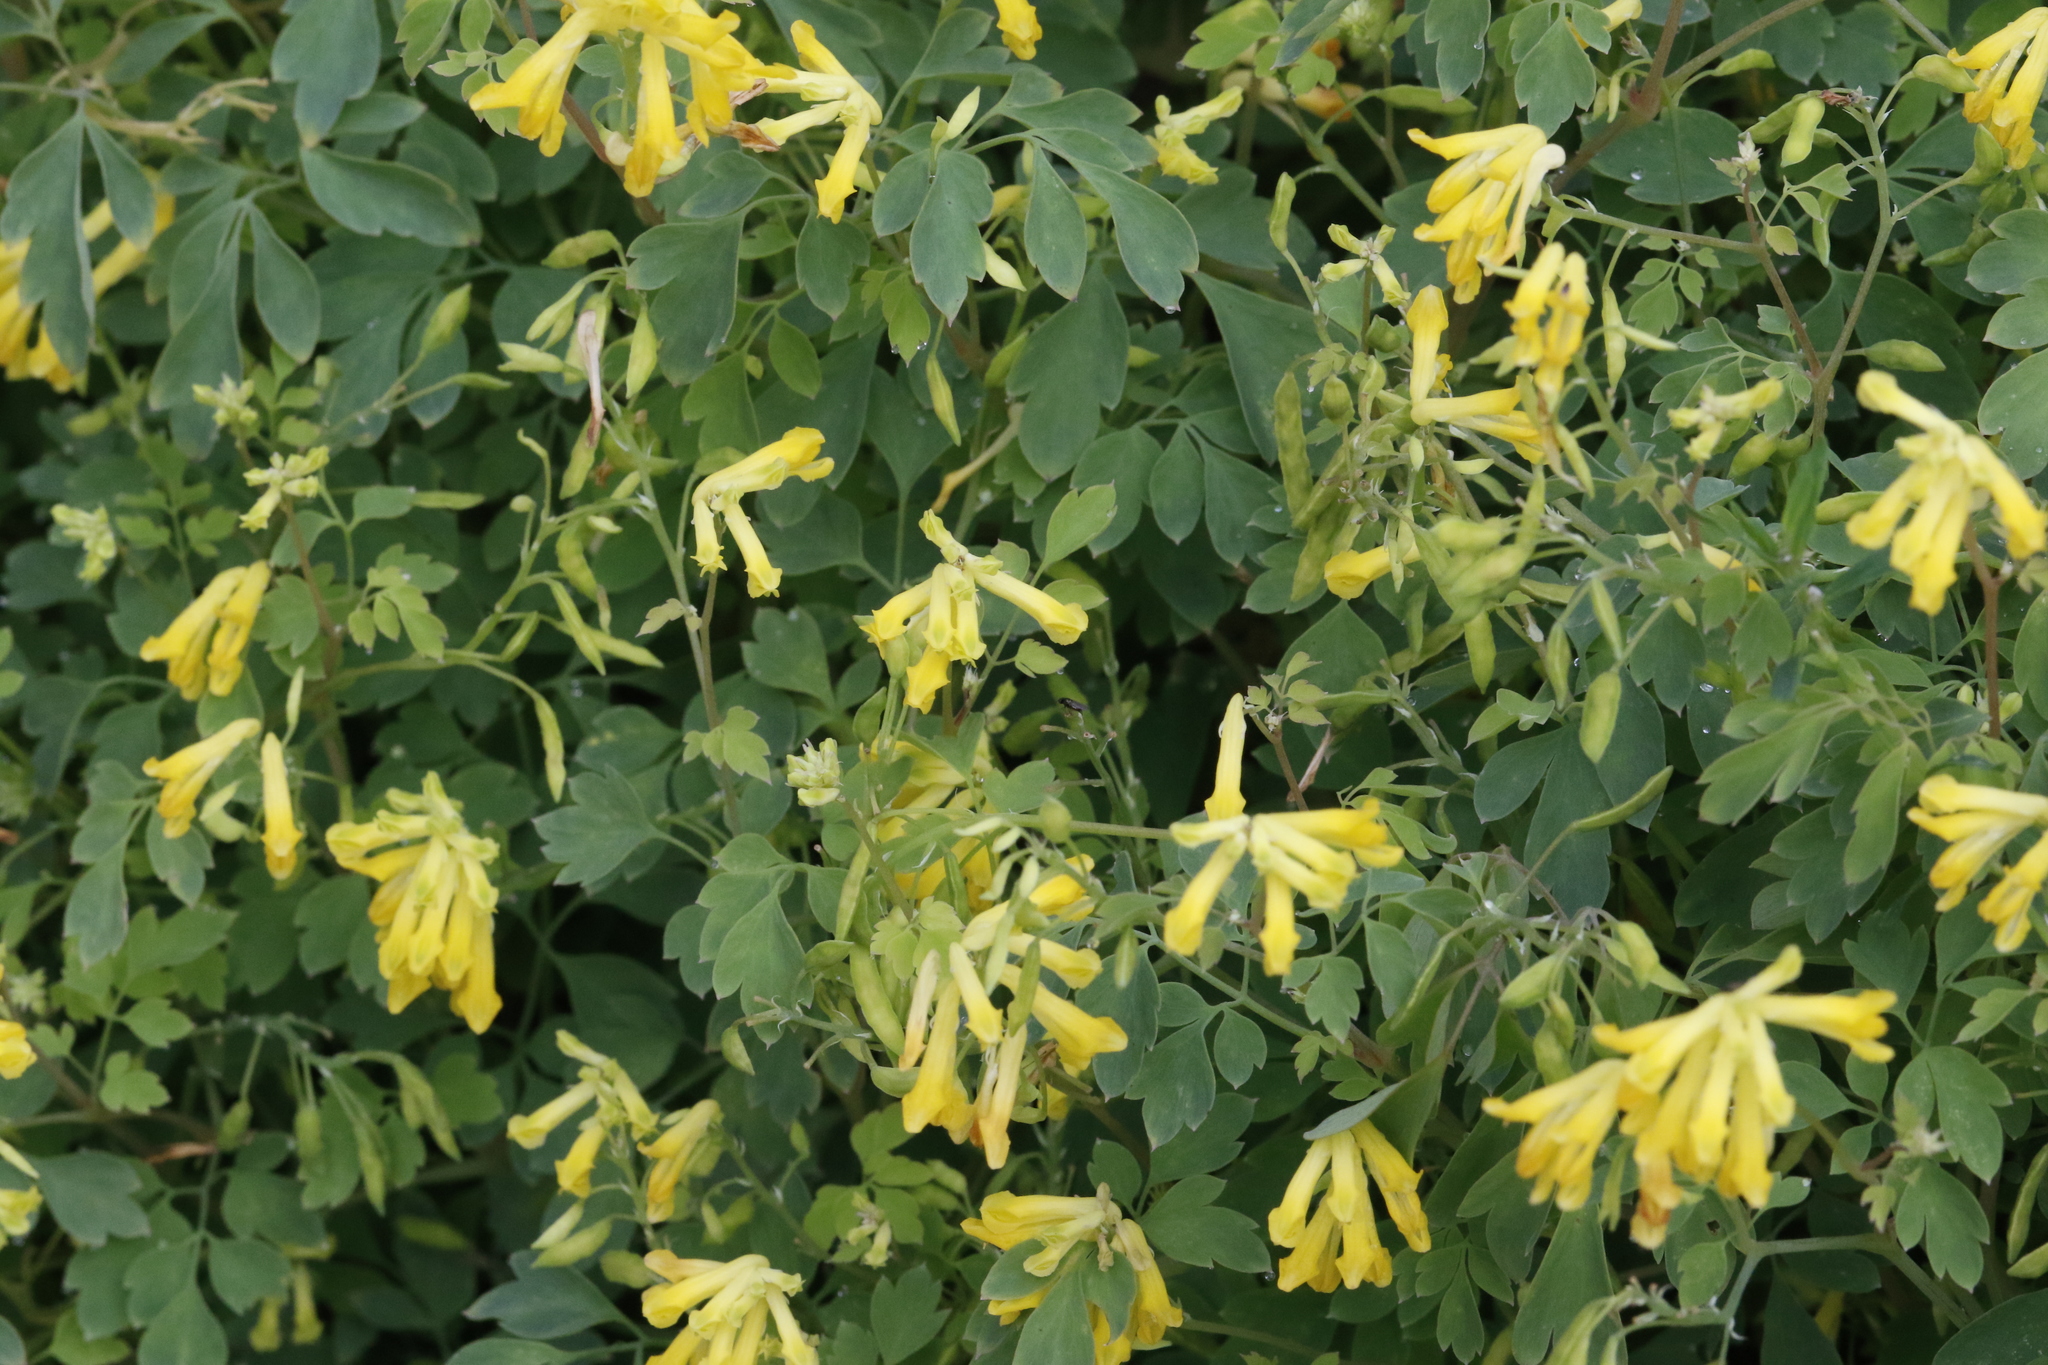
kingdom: Plantae
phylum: Tracheophyta
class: Magnoliopsida
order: Ranunculales
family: Papaveraceae
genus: Pseudofumaria
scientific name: Pseudofumaria lutea
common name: Yellow corydalis
